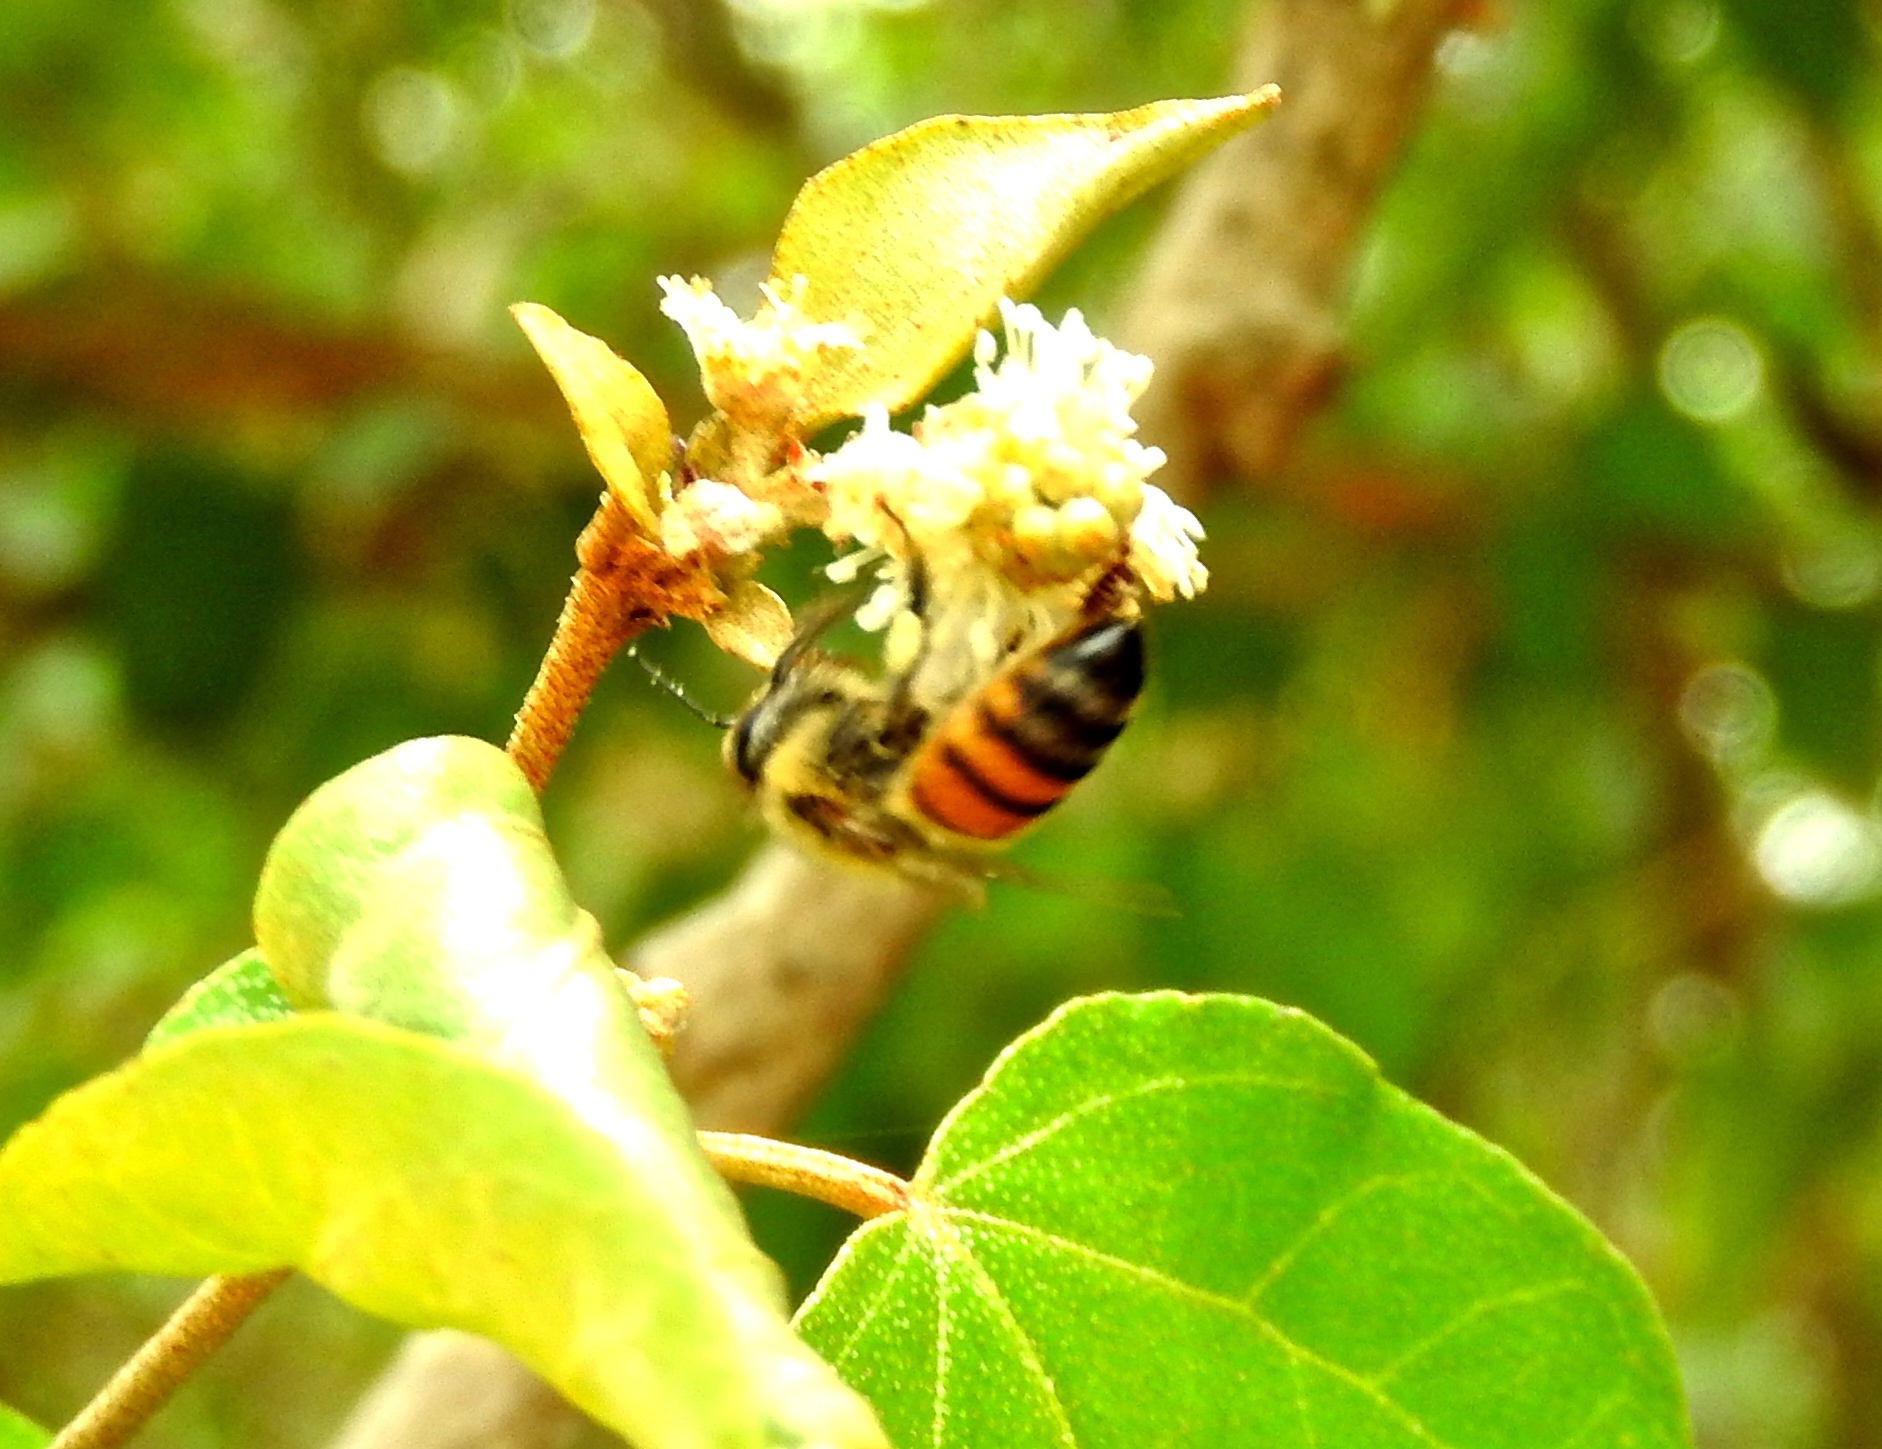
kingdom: Animalia
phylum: Arthropoda
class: Insecta
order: Hymenoptera
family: Apidae
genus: Apis
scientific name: Apis mellifera
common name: Honey bee
